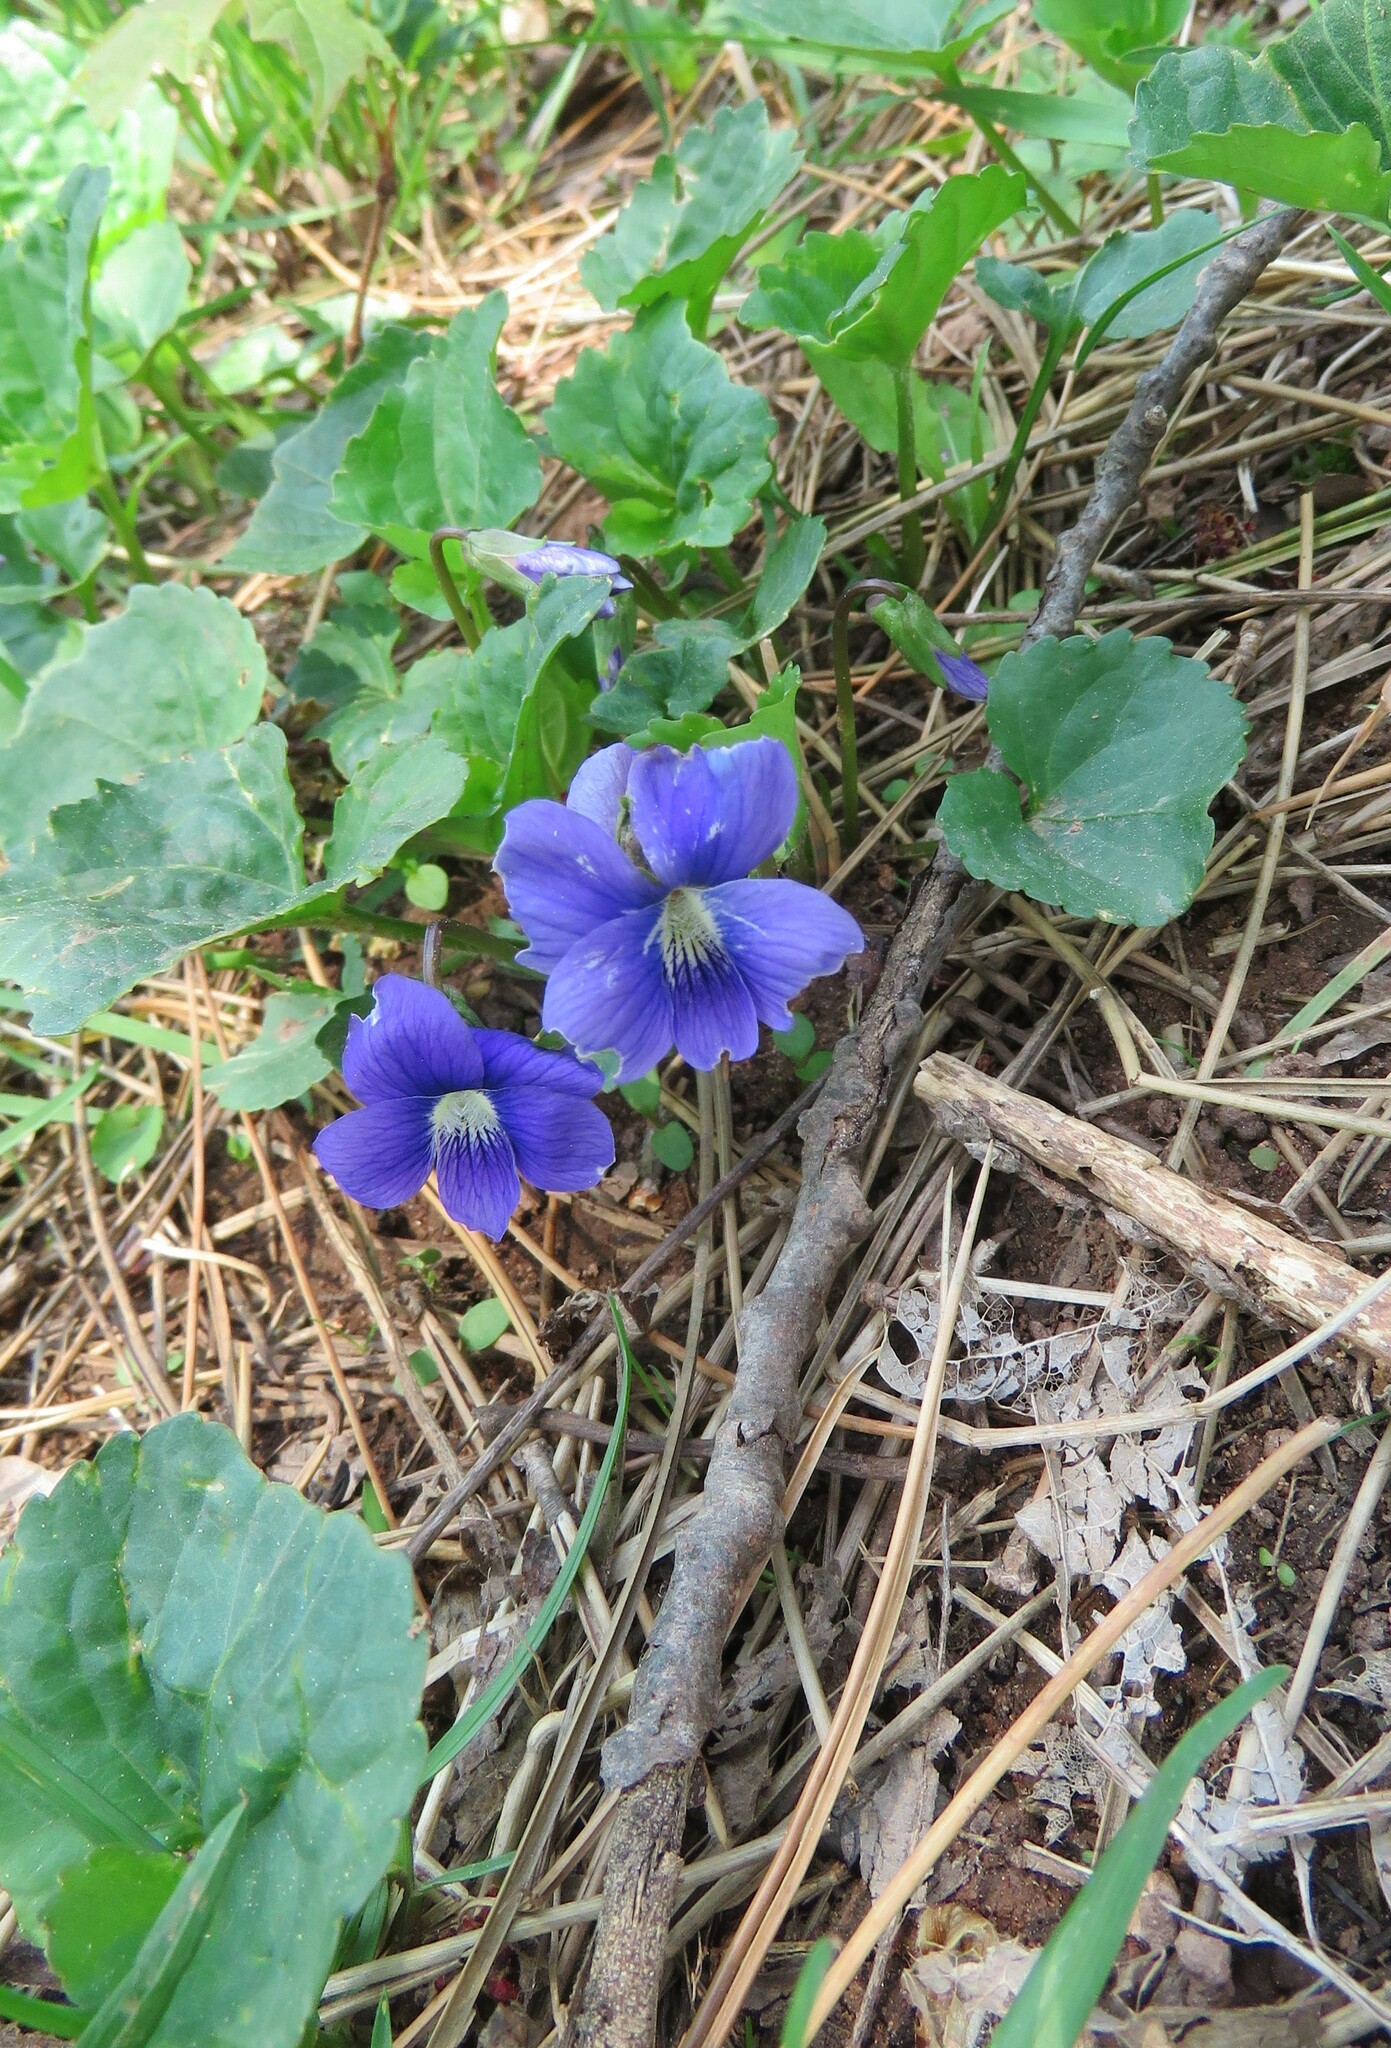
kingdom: Plantae
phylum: Tracheophyta
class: Magnoliopsida
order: Malpighiales
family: Violaceae
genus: Viola
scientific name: Viola sororia
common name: Dooryard violet
